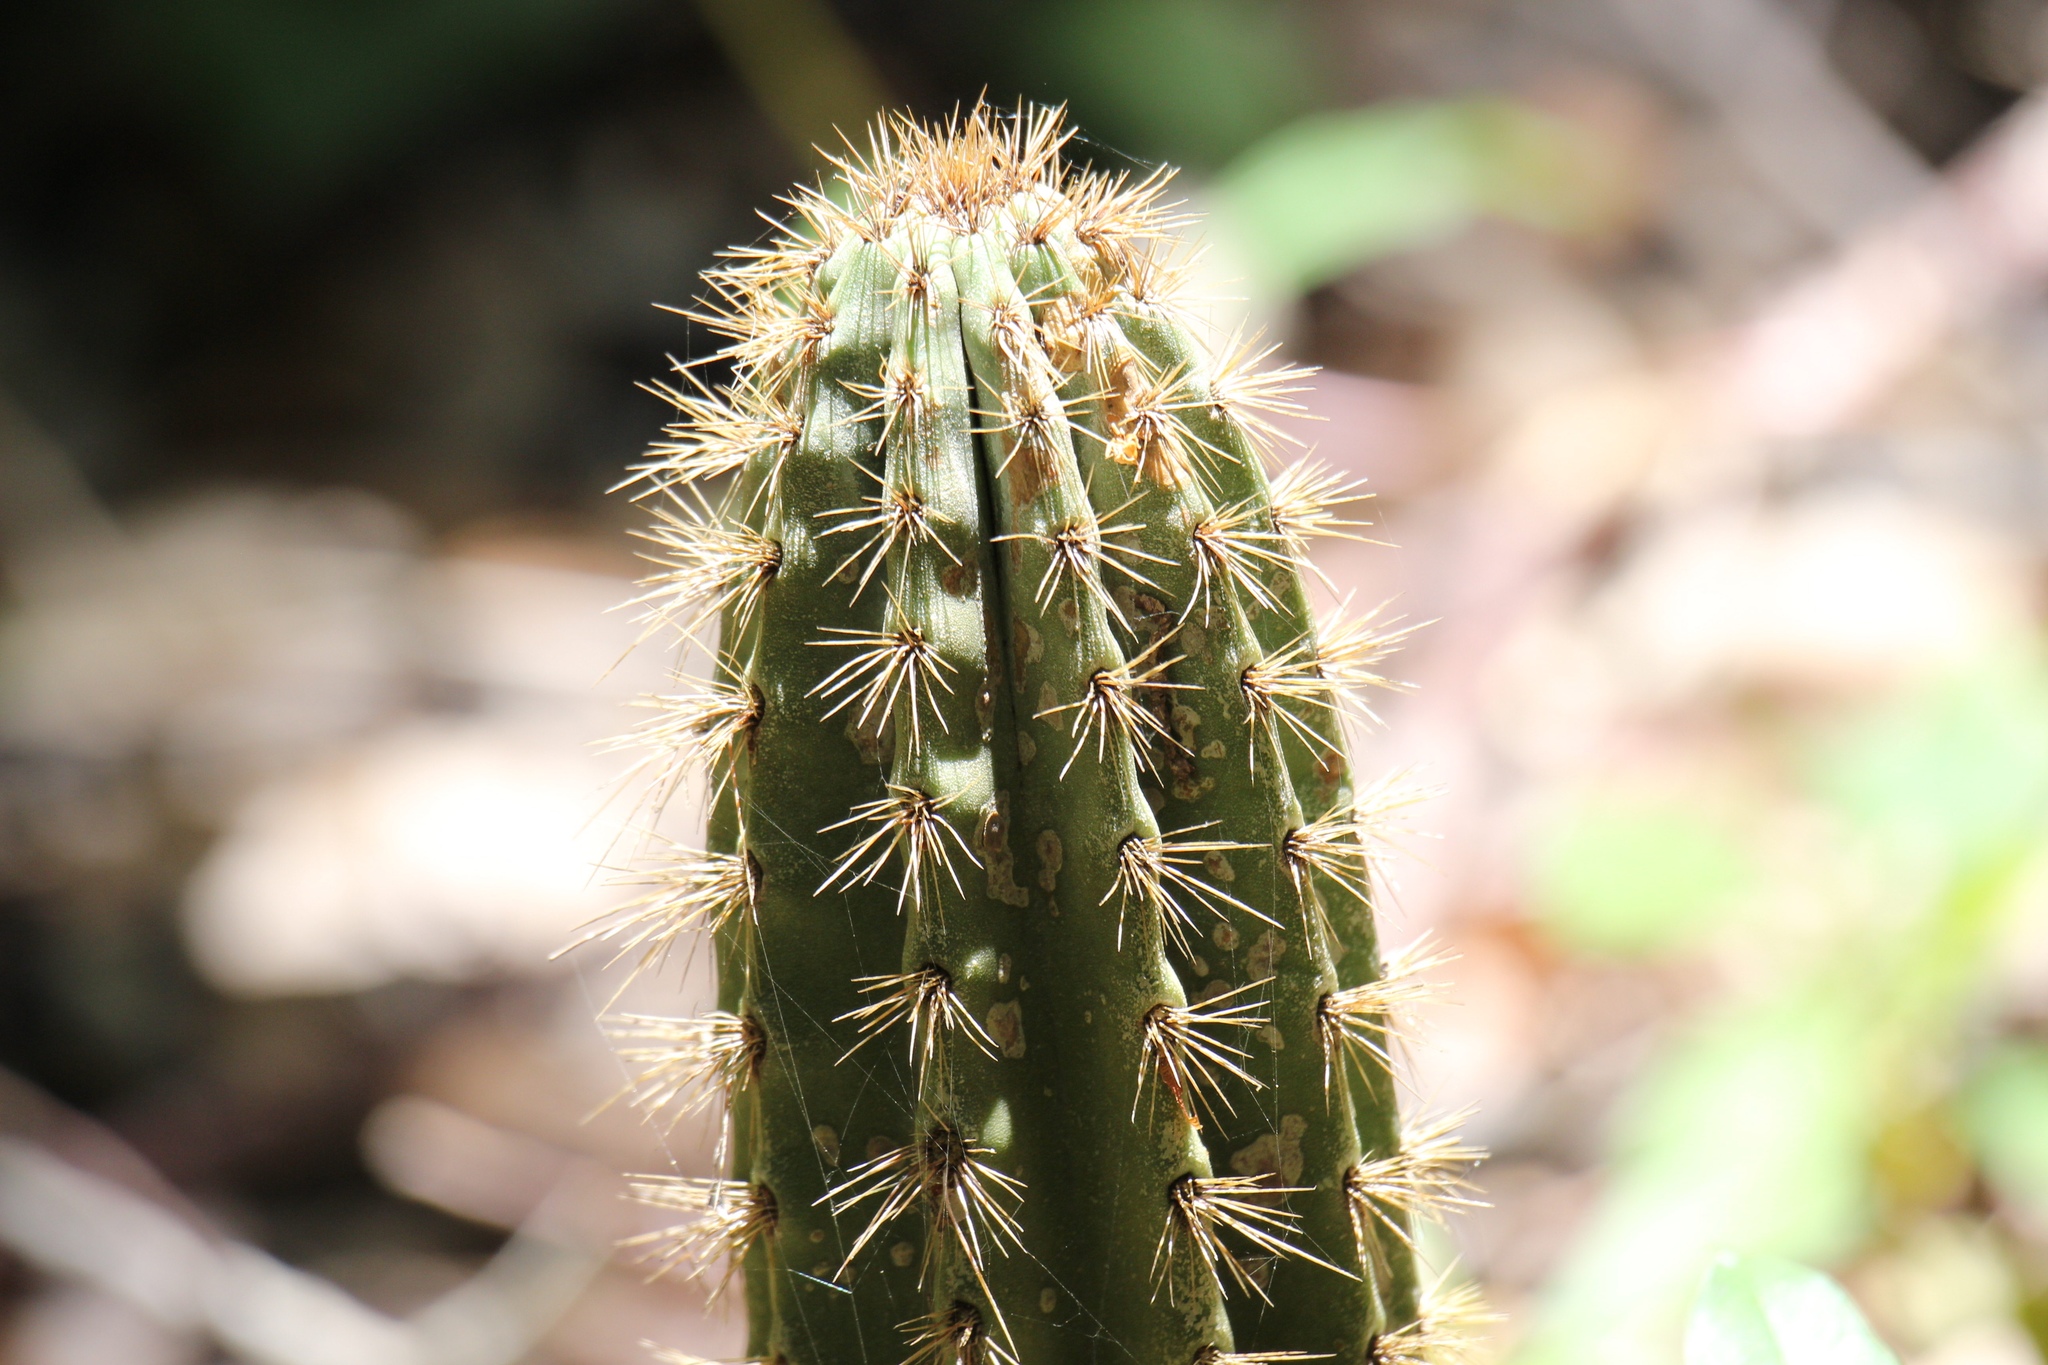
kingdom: Plantae
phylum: Tracheophyta
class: Magnoliopsida
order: Caryophyllales
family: Cactaceae
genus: Pilosocereus
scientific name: Pilosocereus robinii
